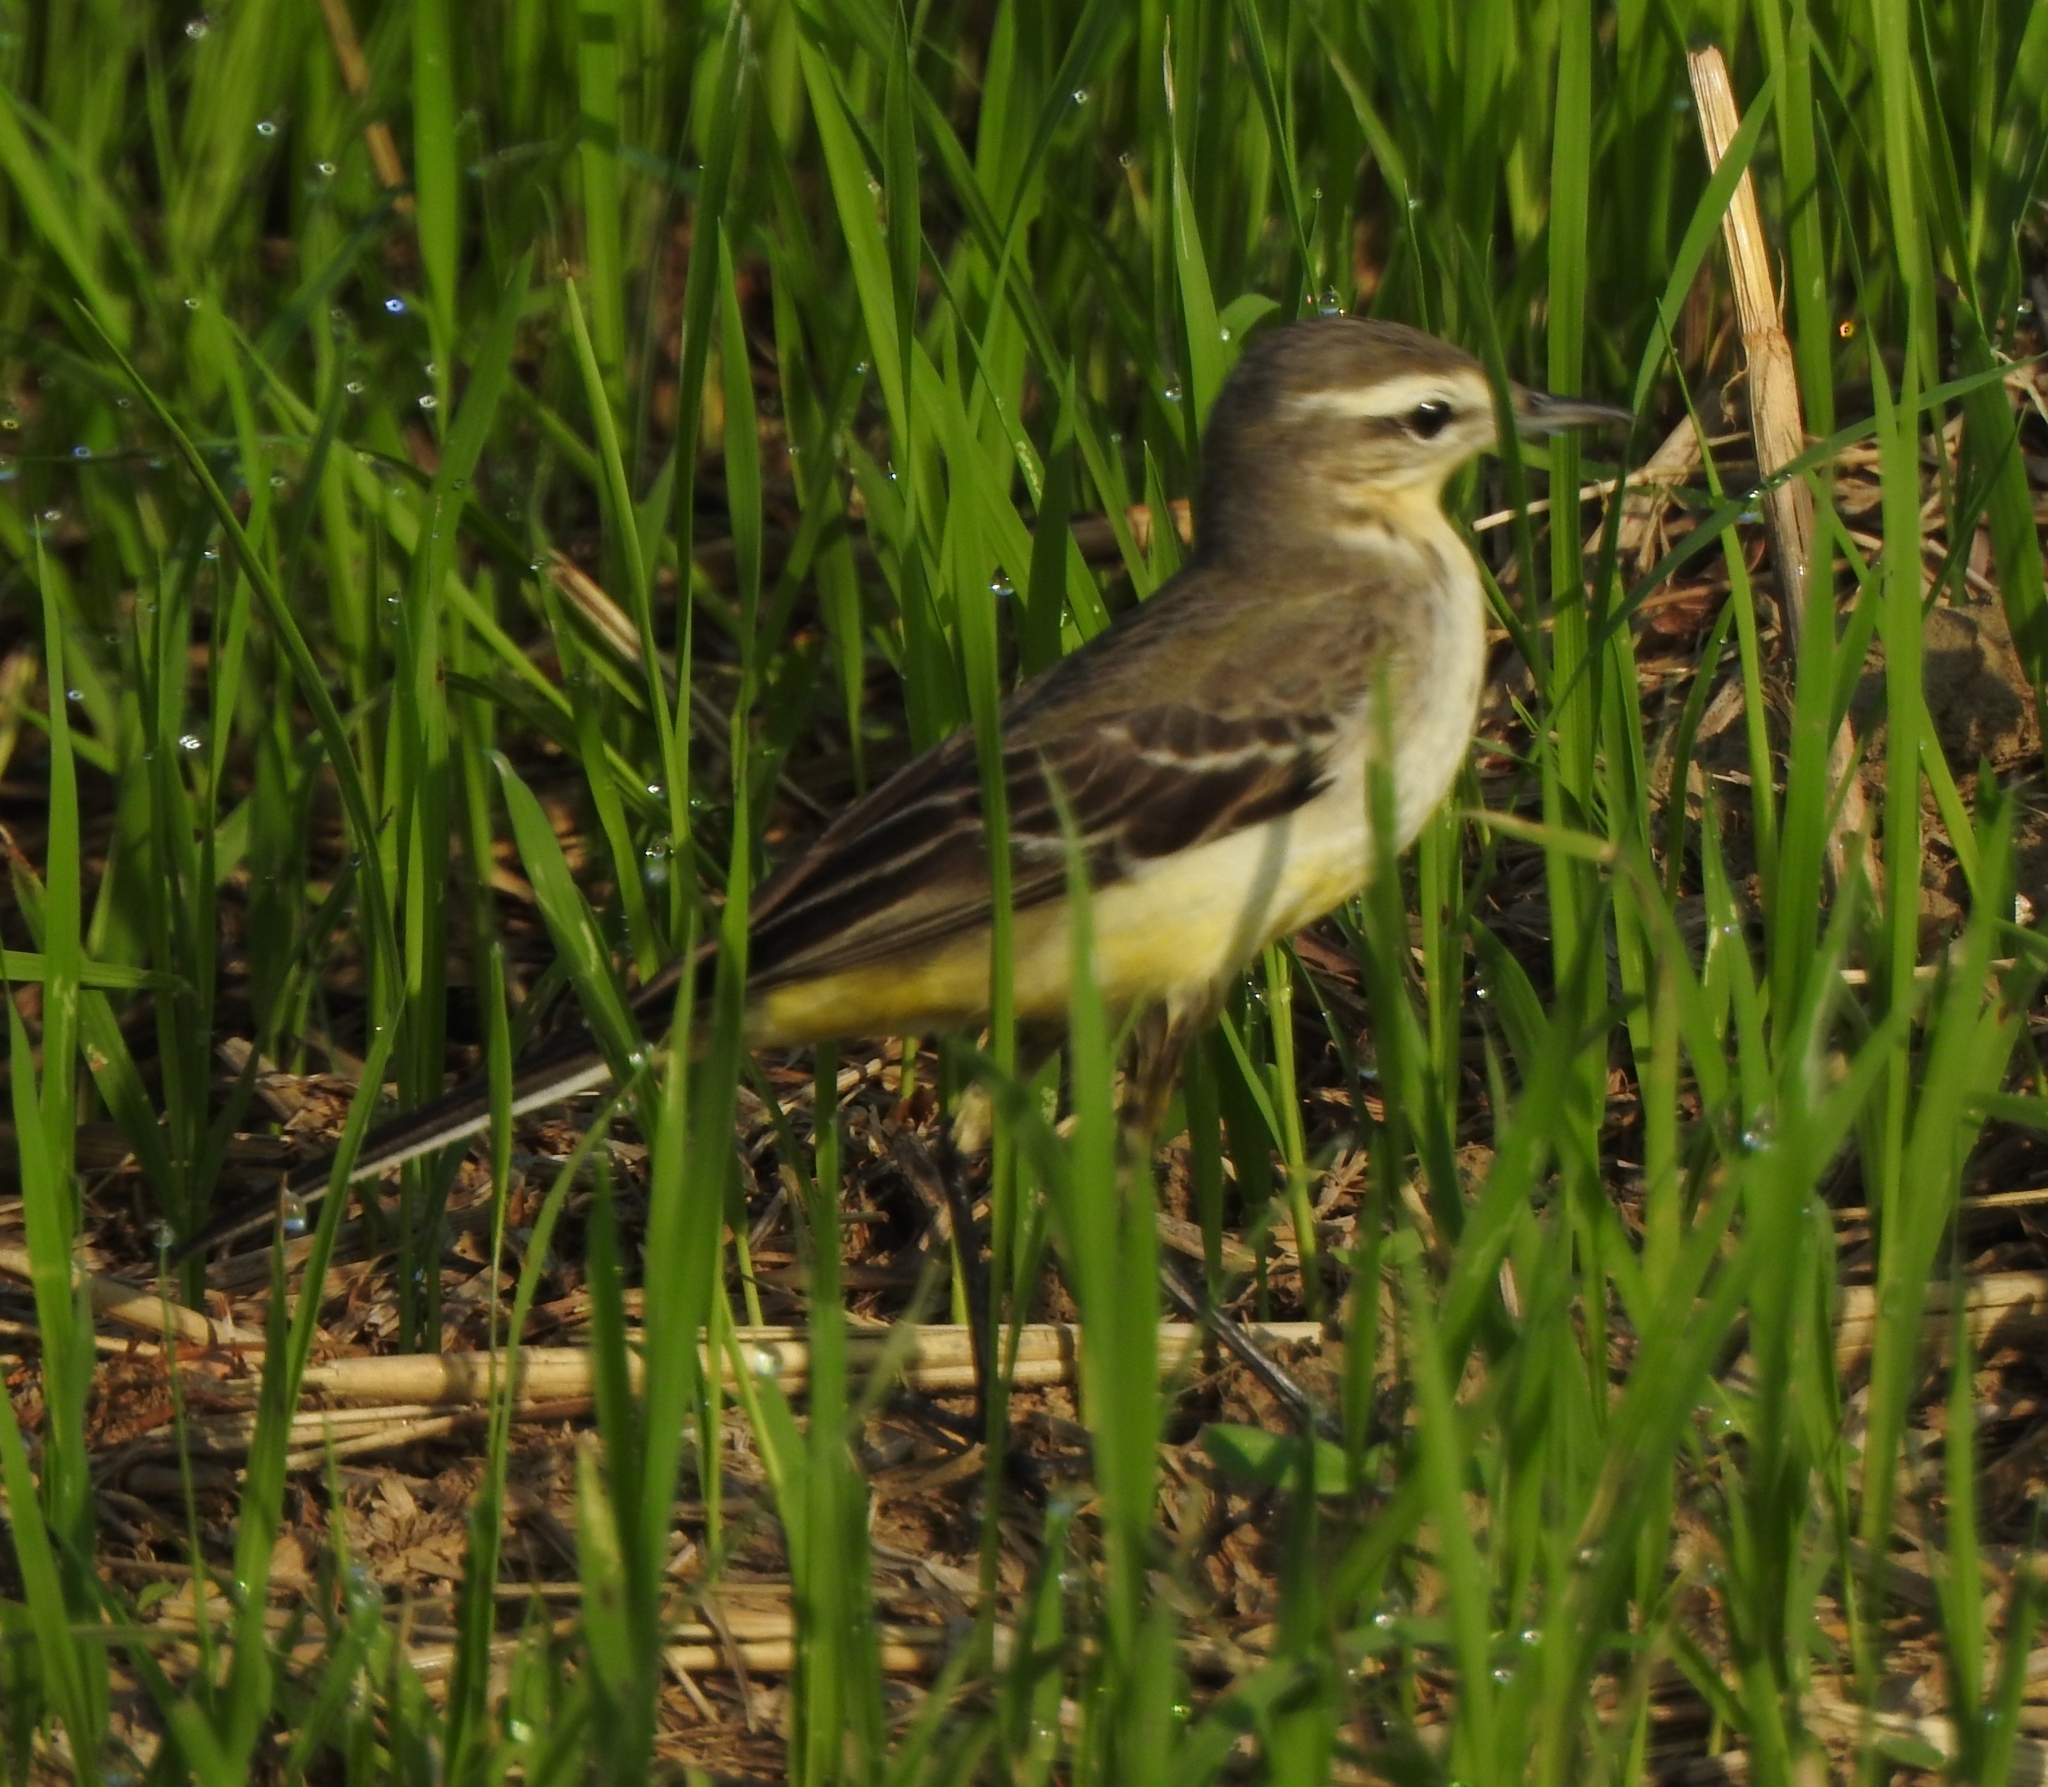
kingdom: Animalia
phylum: Chordata
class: Aves
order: Passeriformes
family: Motacillidae
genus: Motacilla
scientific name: Motacilla flava
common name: Western yellow wagtail
